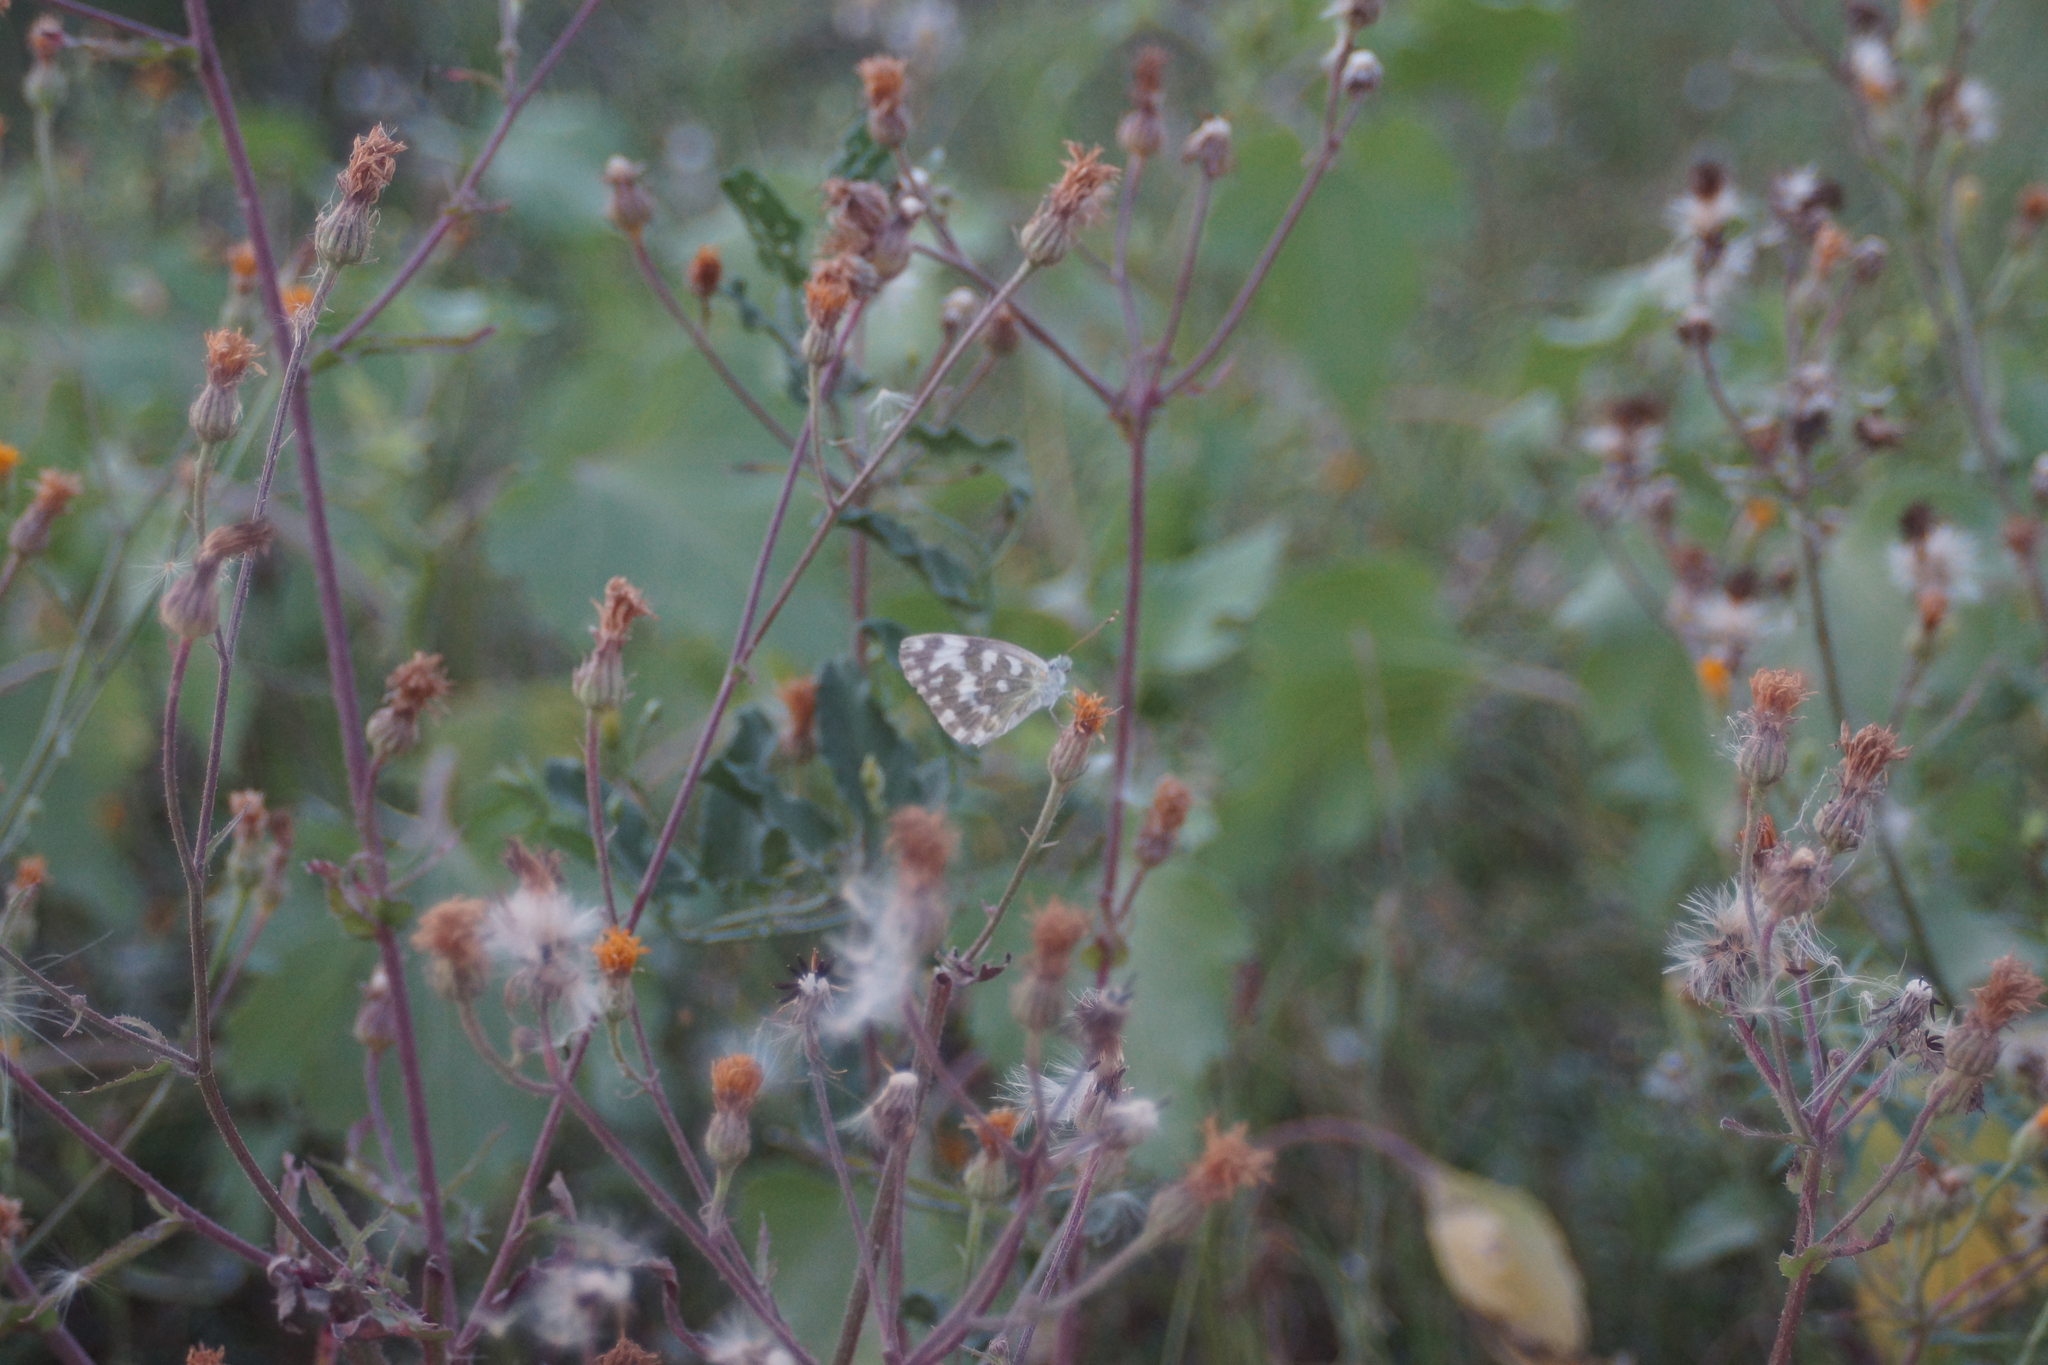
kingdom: Animalia
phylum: Arthropoda
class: Insecta
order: Lepidoptera
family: Pieridae
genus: Pontia
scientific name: Pontia edusa
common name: Eastern bath white
